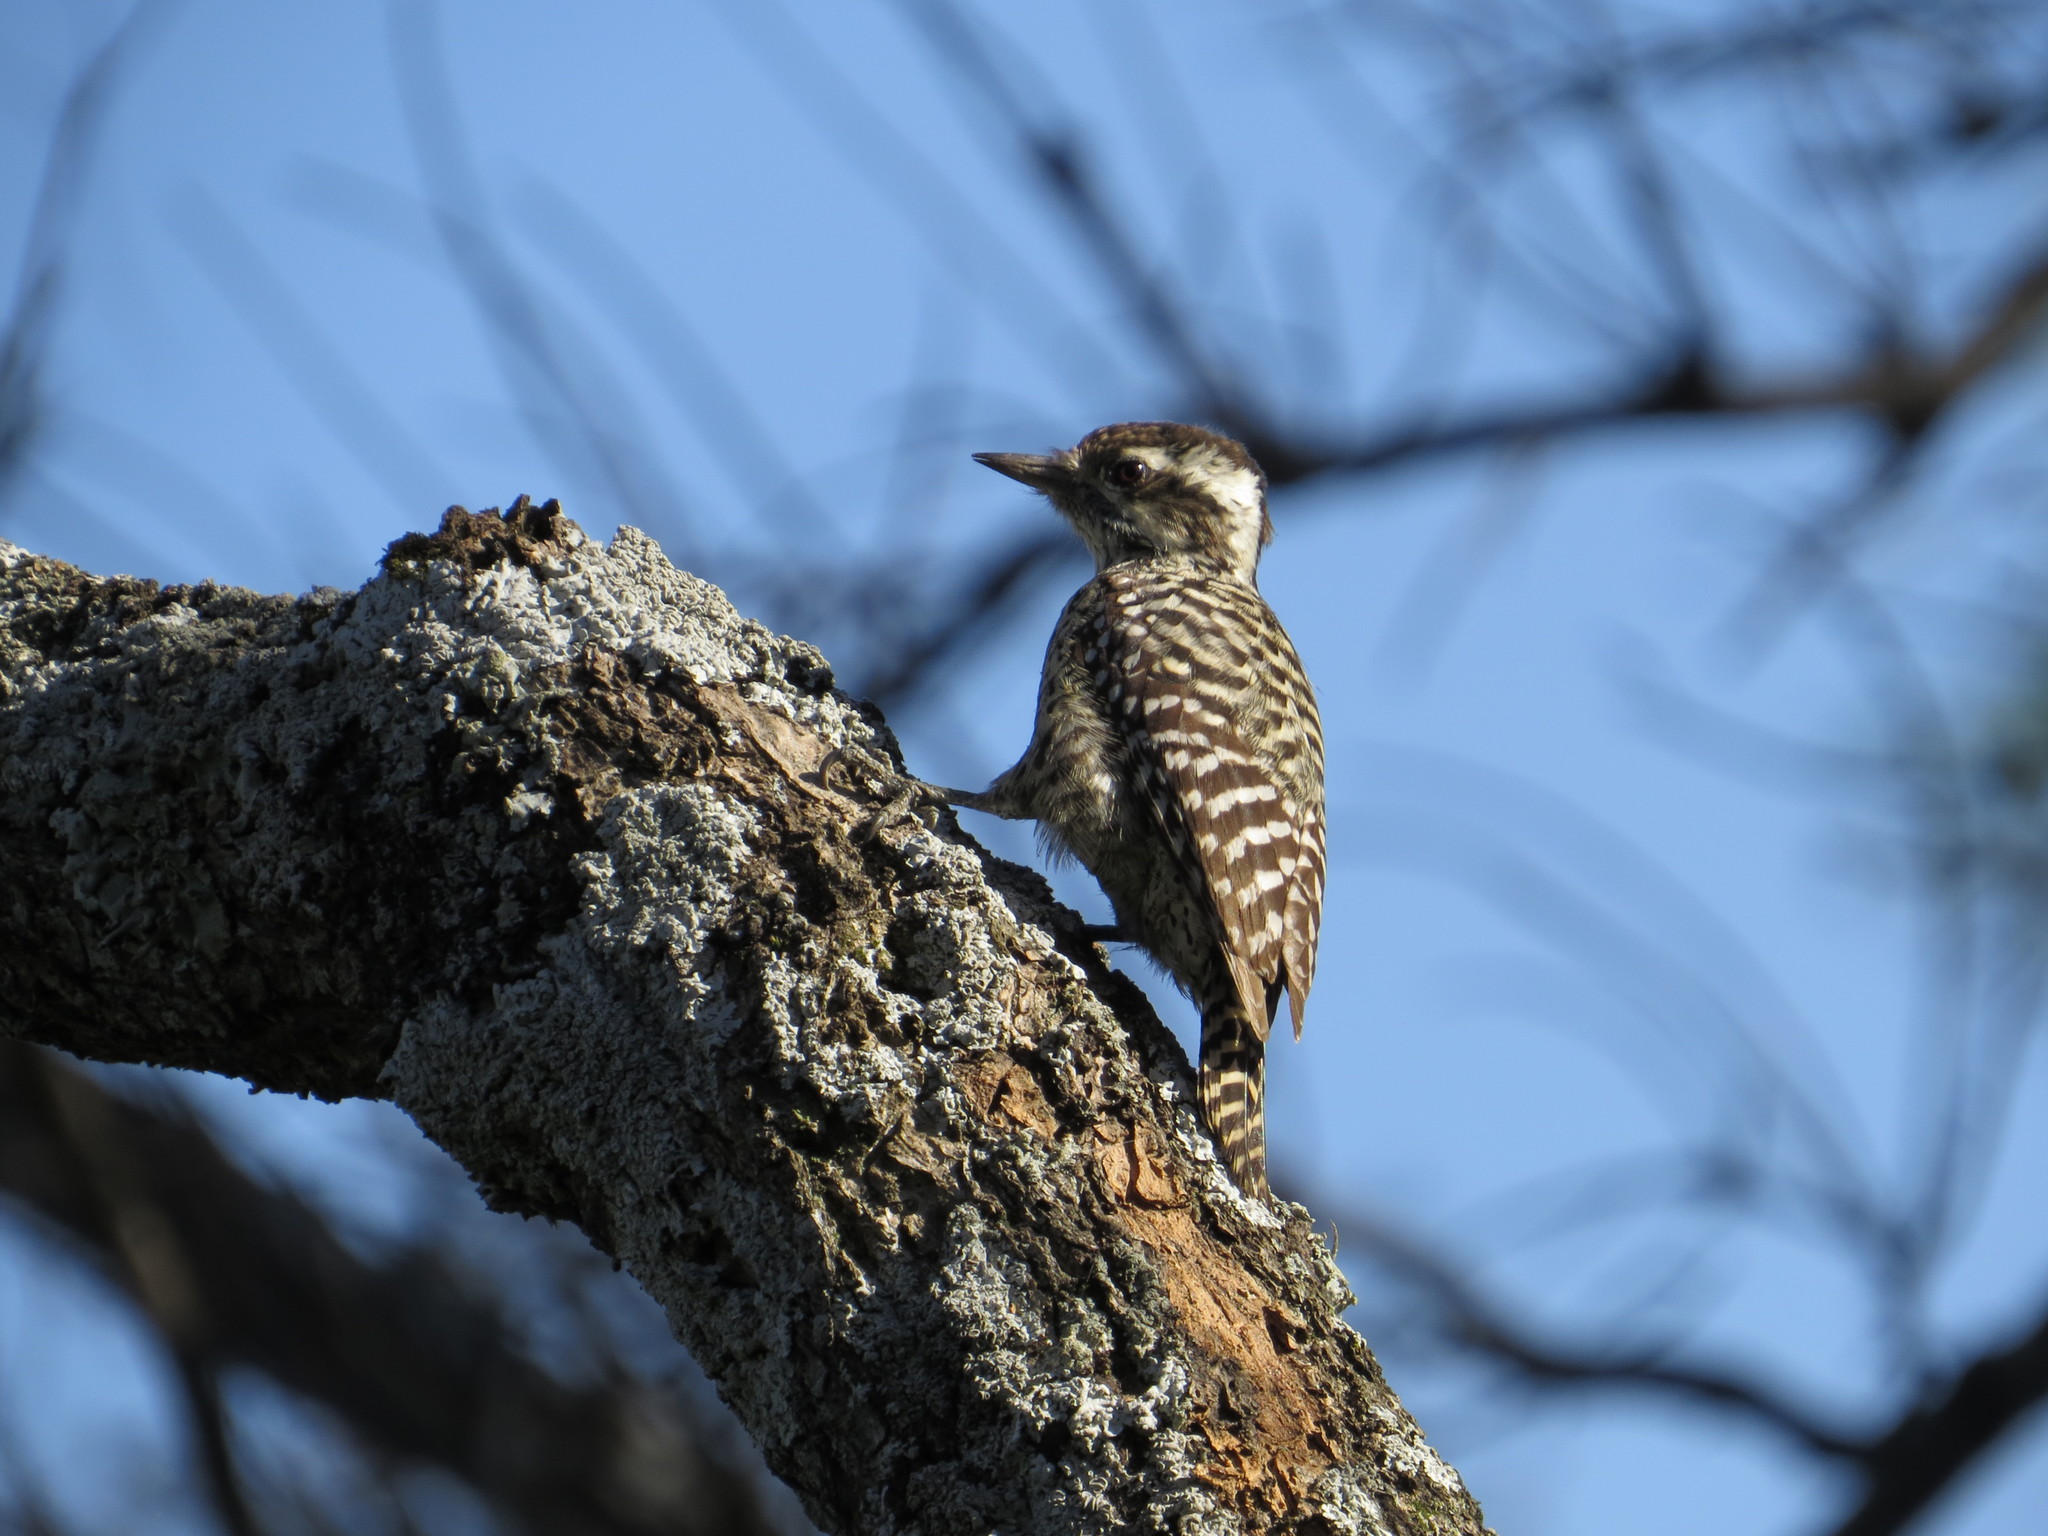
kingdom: Animalia
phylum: Chordata
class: Aves
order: Piciformes
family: Picidae
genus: Veniliornis
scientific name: Veniliornis mixtus
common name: Checkered woodpecker
